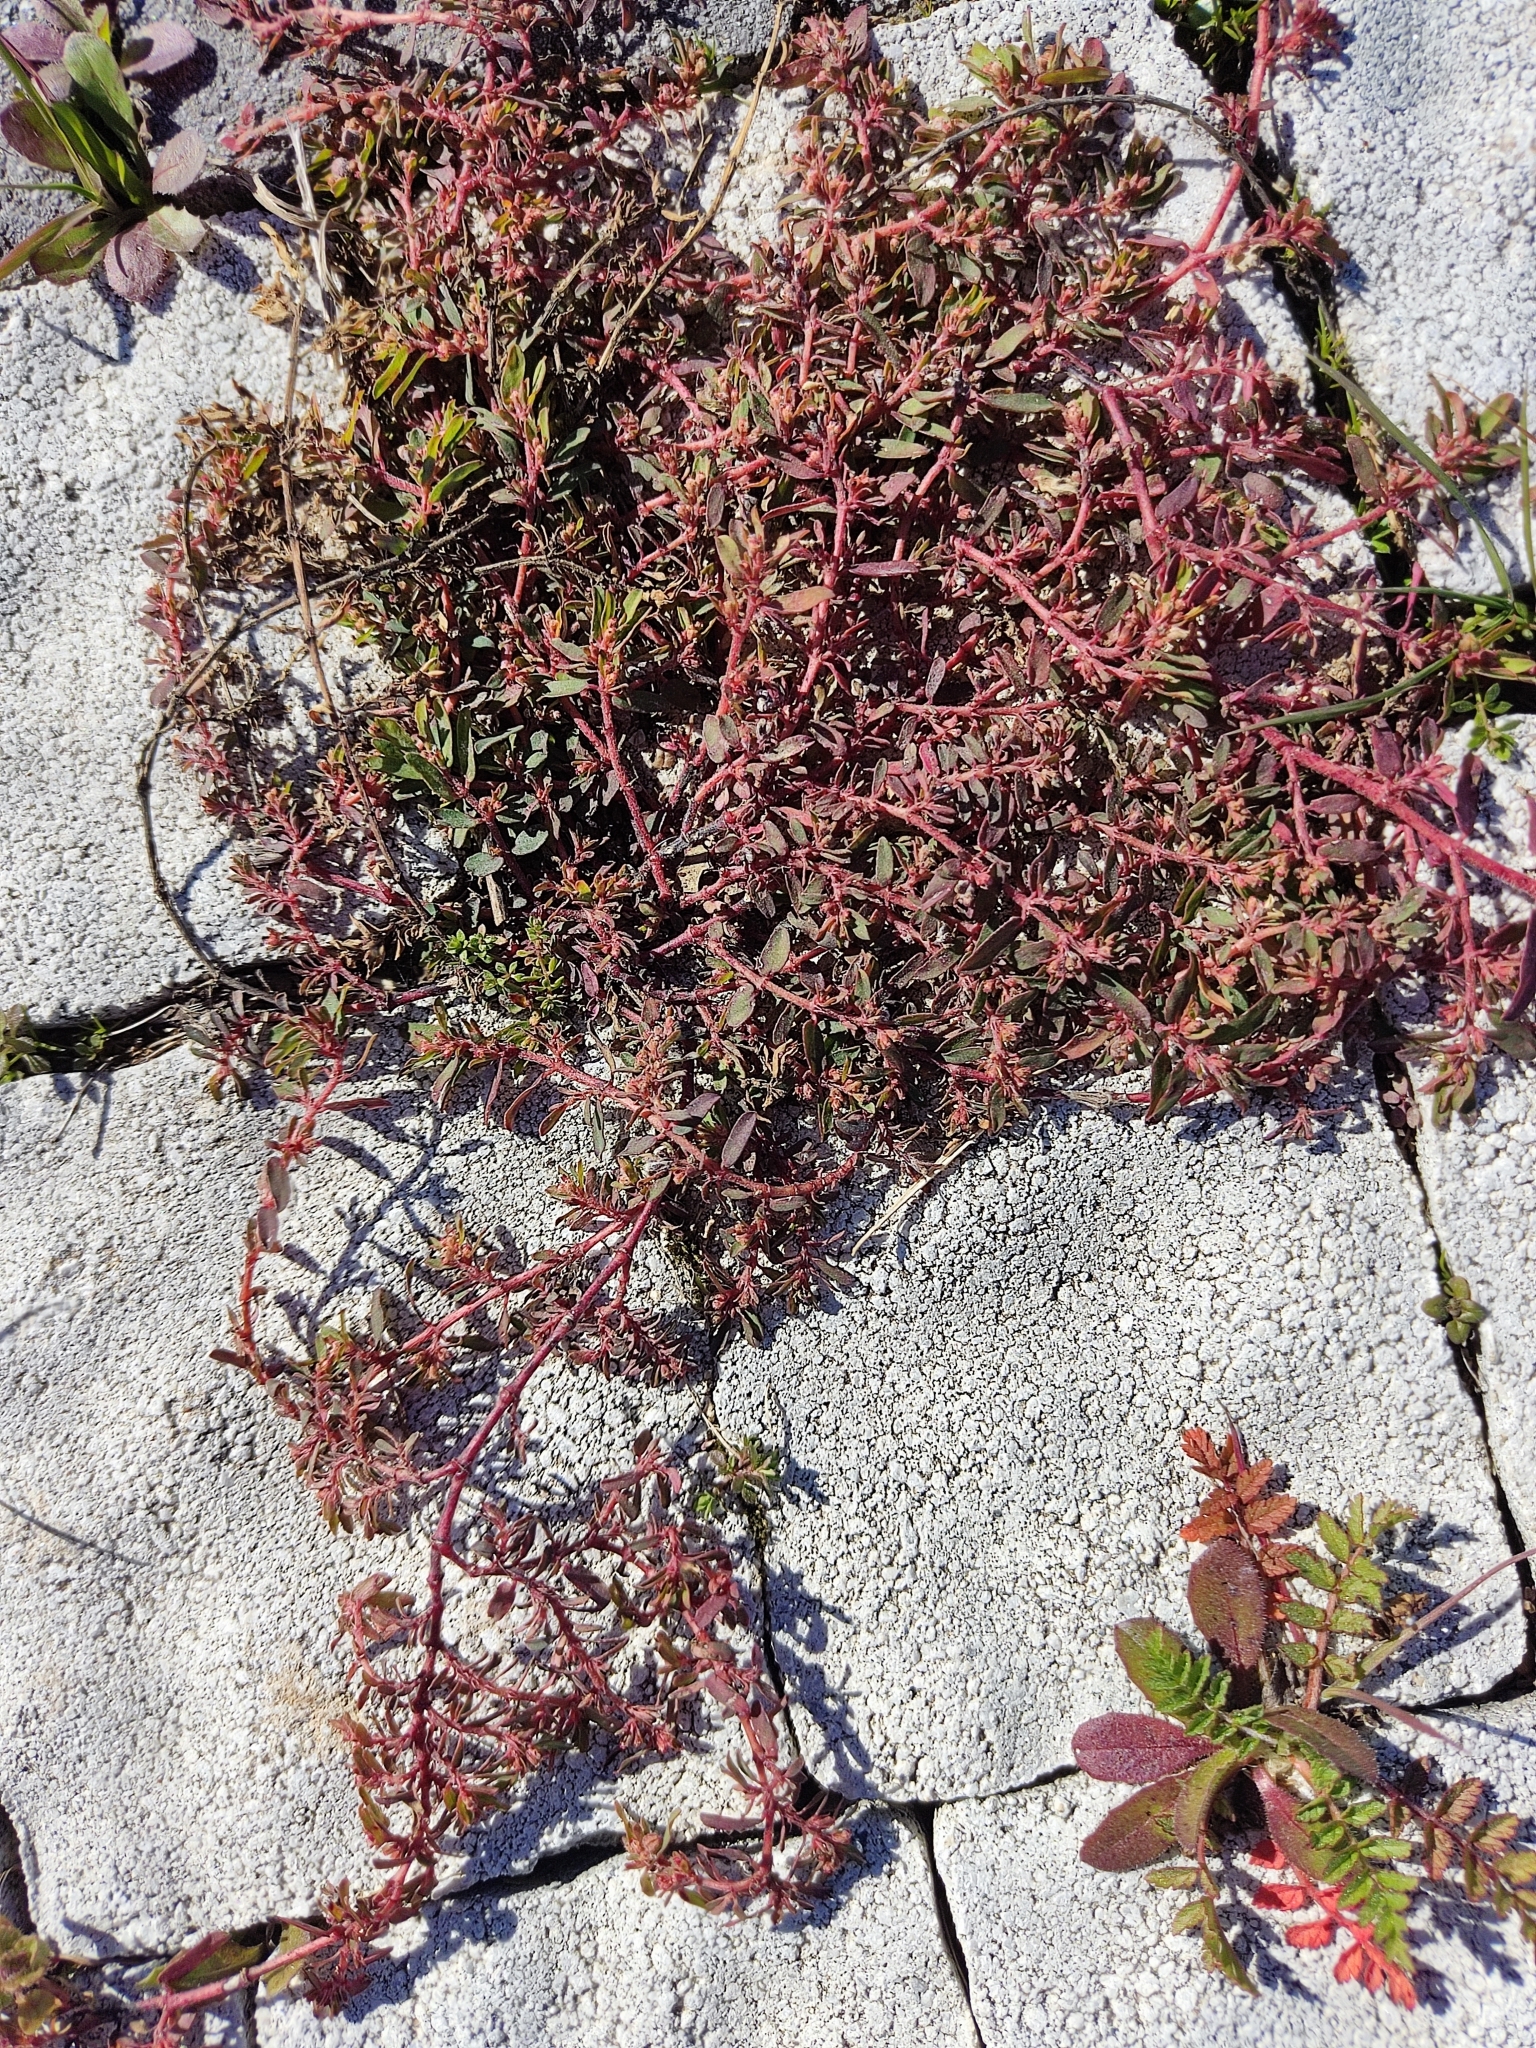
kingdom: Plantae
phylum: Tracheophyta
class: Magnoliopsida
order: Caryophyllales
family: Portulacaceae
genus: Portulaca
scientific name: Portulaca oleracea
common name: Common purslane
